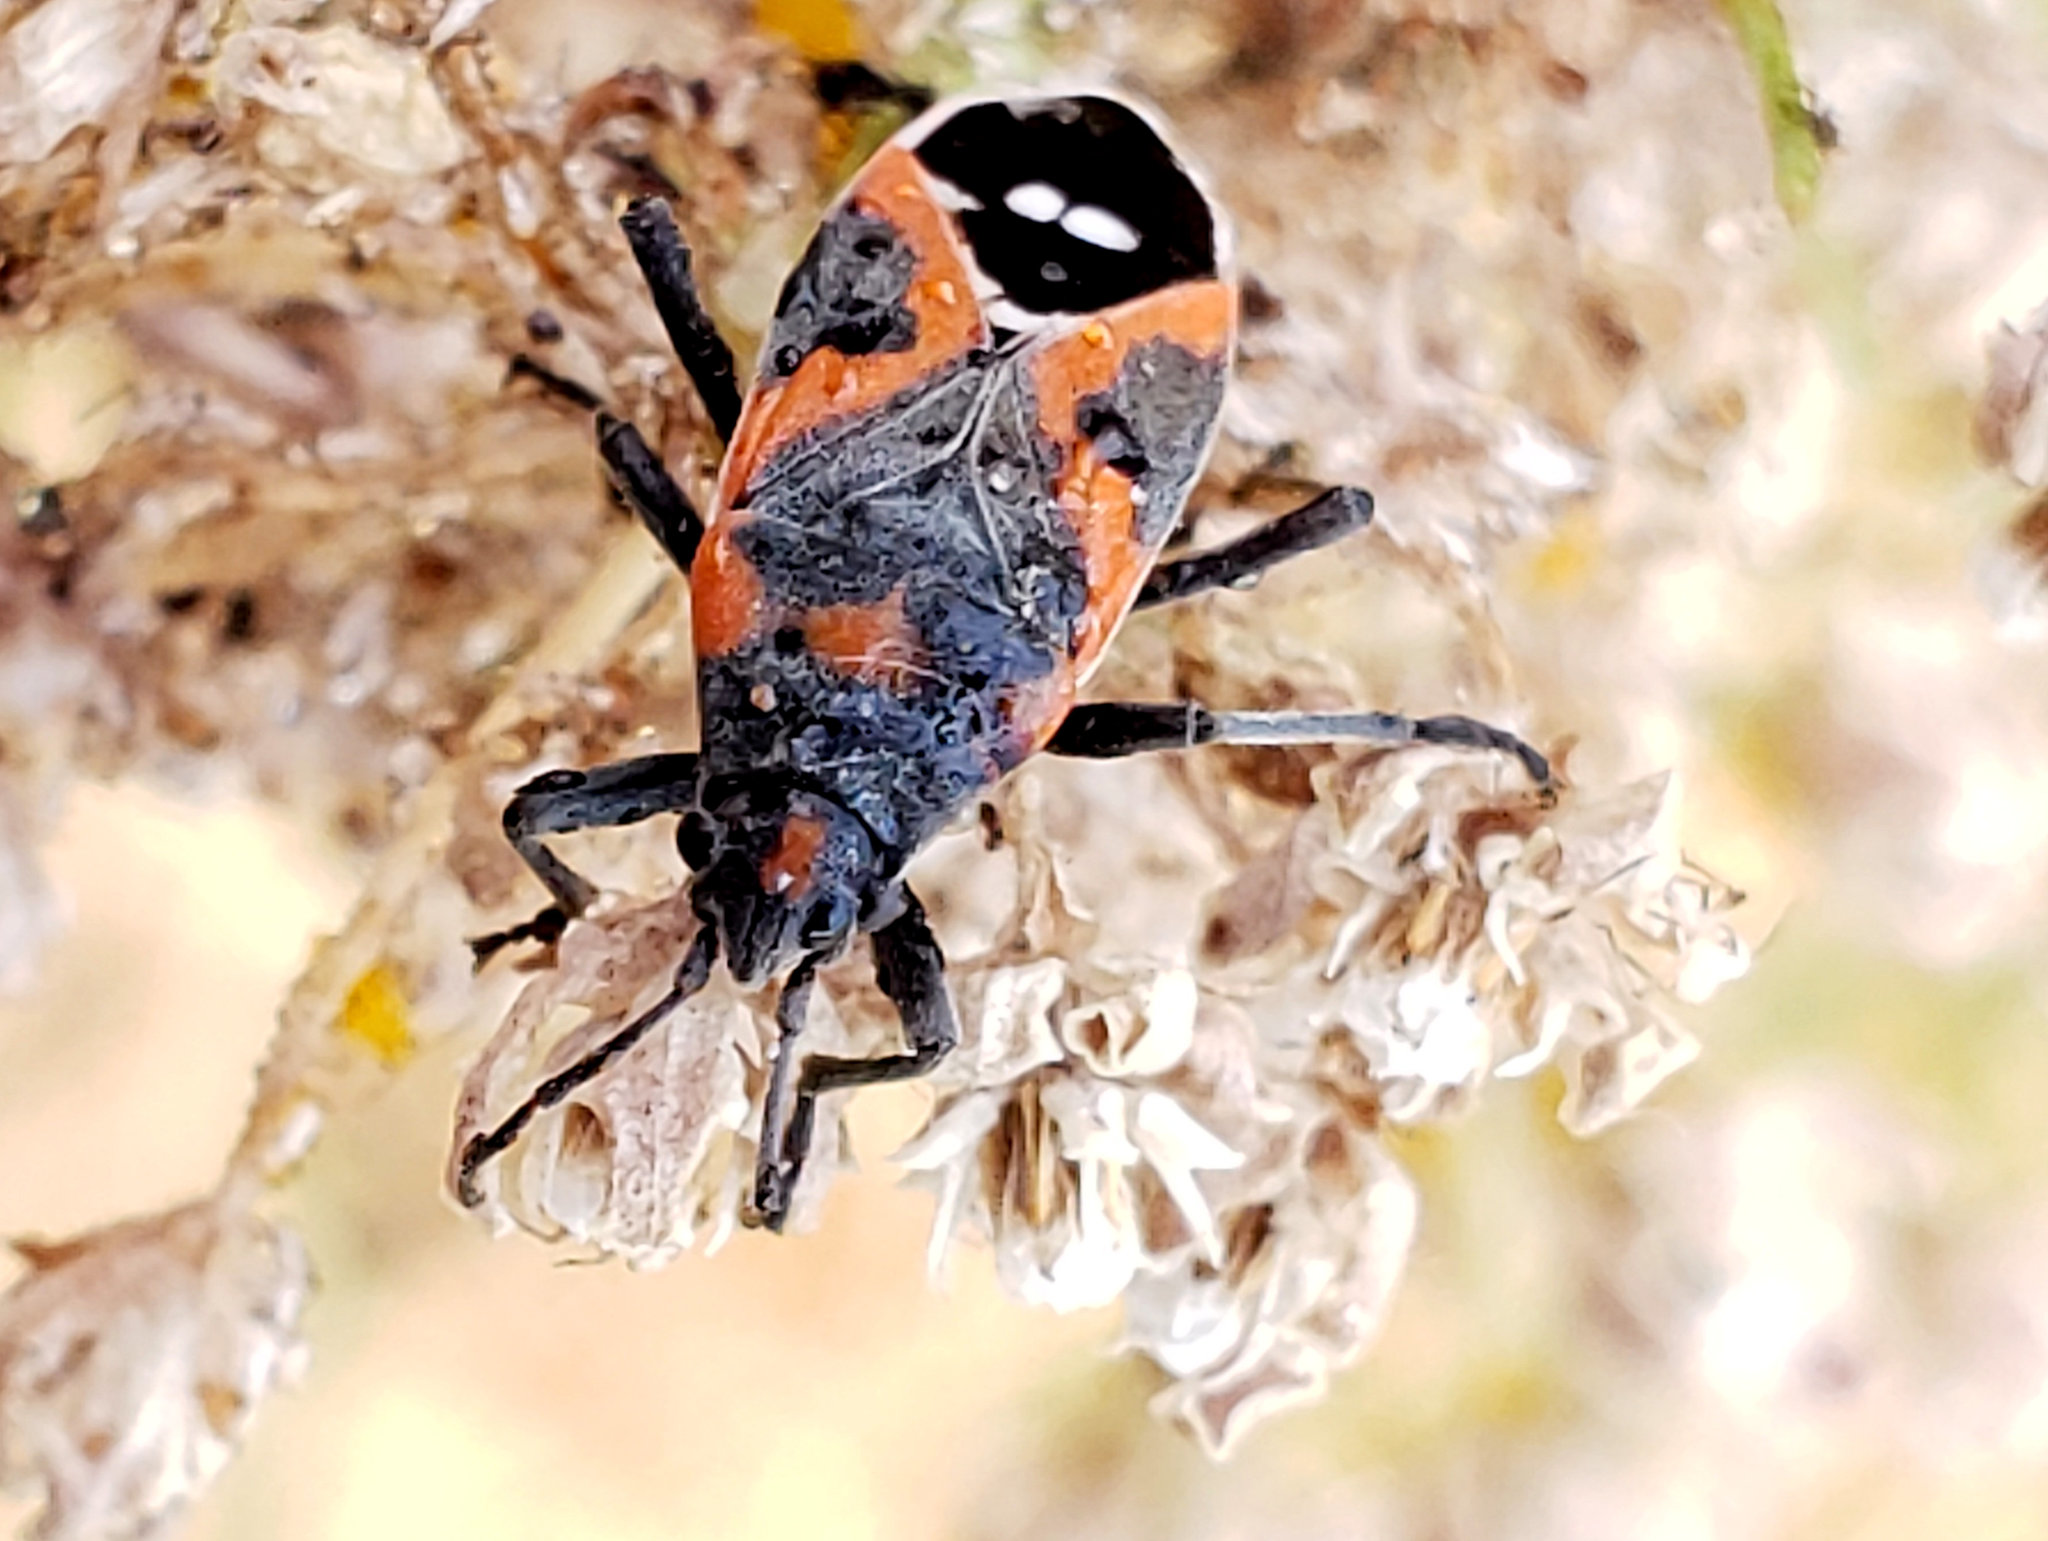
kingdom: Animalia
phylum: Arthropoda
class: Insecta
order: Hemiptera
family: Lygaeidae
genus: Lygaeus
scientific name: Lygaeus kalmii
